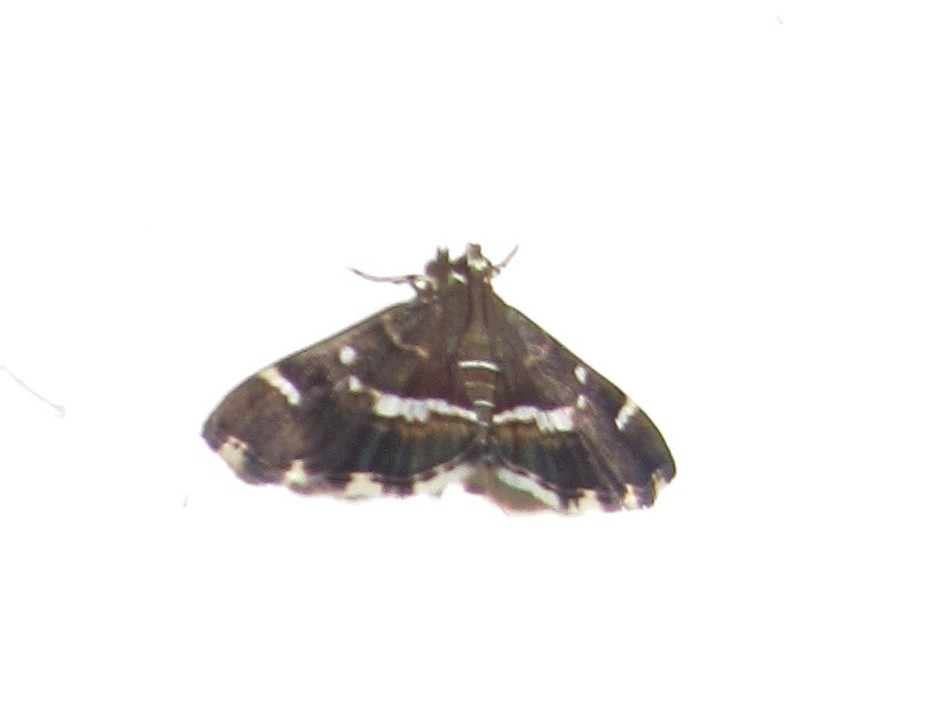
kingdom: Animalia
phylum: Arthropoda
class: Insecta
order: Lepidoptera
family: Crambidae
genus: Hymenia
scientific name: Hymenia perspectalis
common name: Spotted beet webworm
